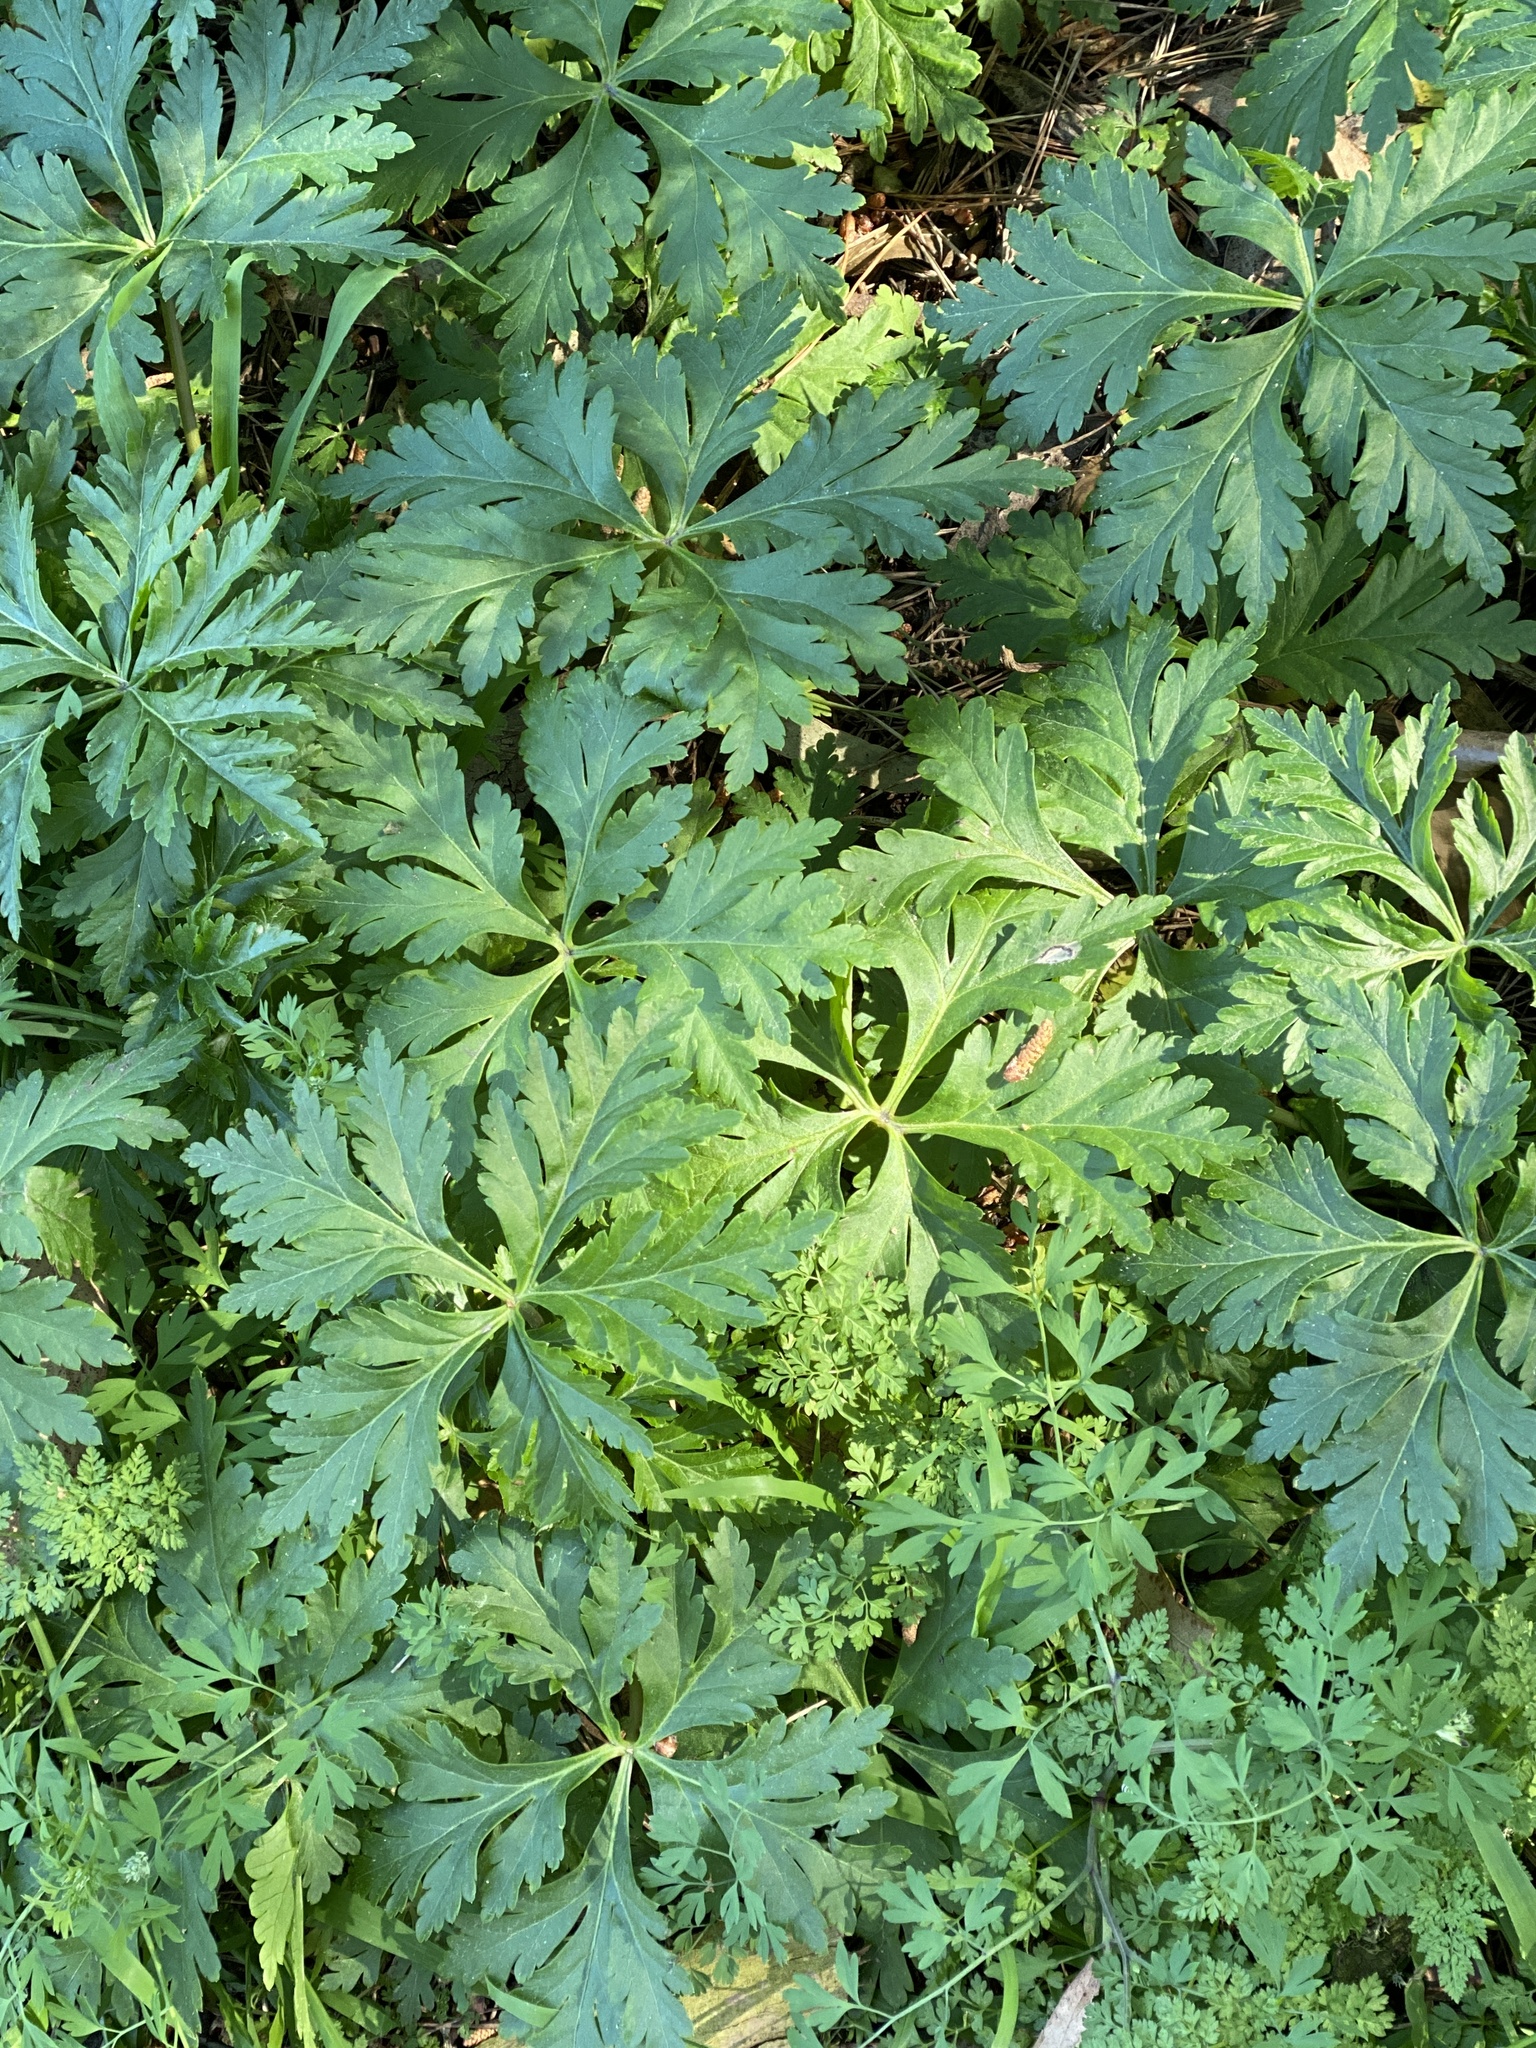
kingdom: Plantae
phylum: Tracheophyta
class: Magnoliopsida
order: Geraniales
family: Geraniaceae
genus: Geranium
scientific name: Geranium
